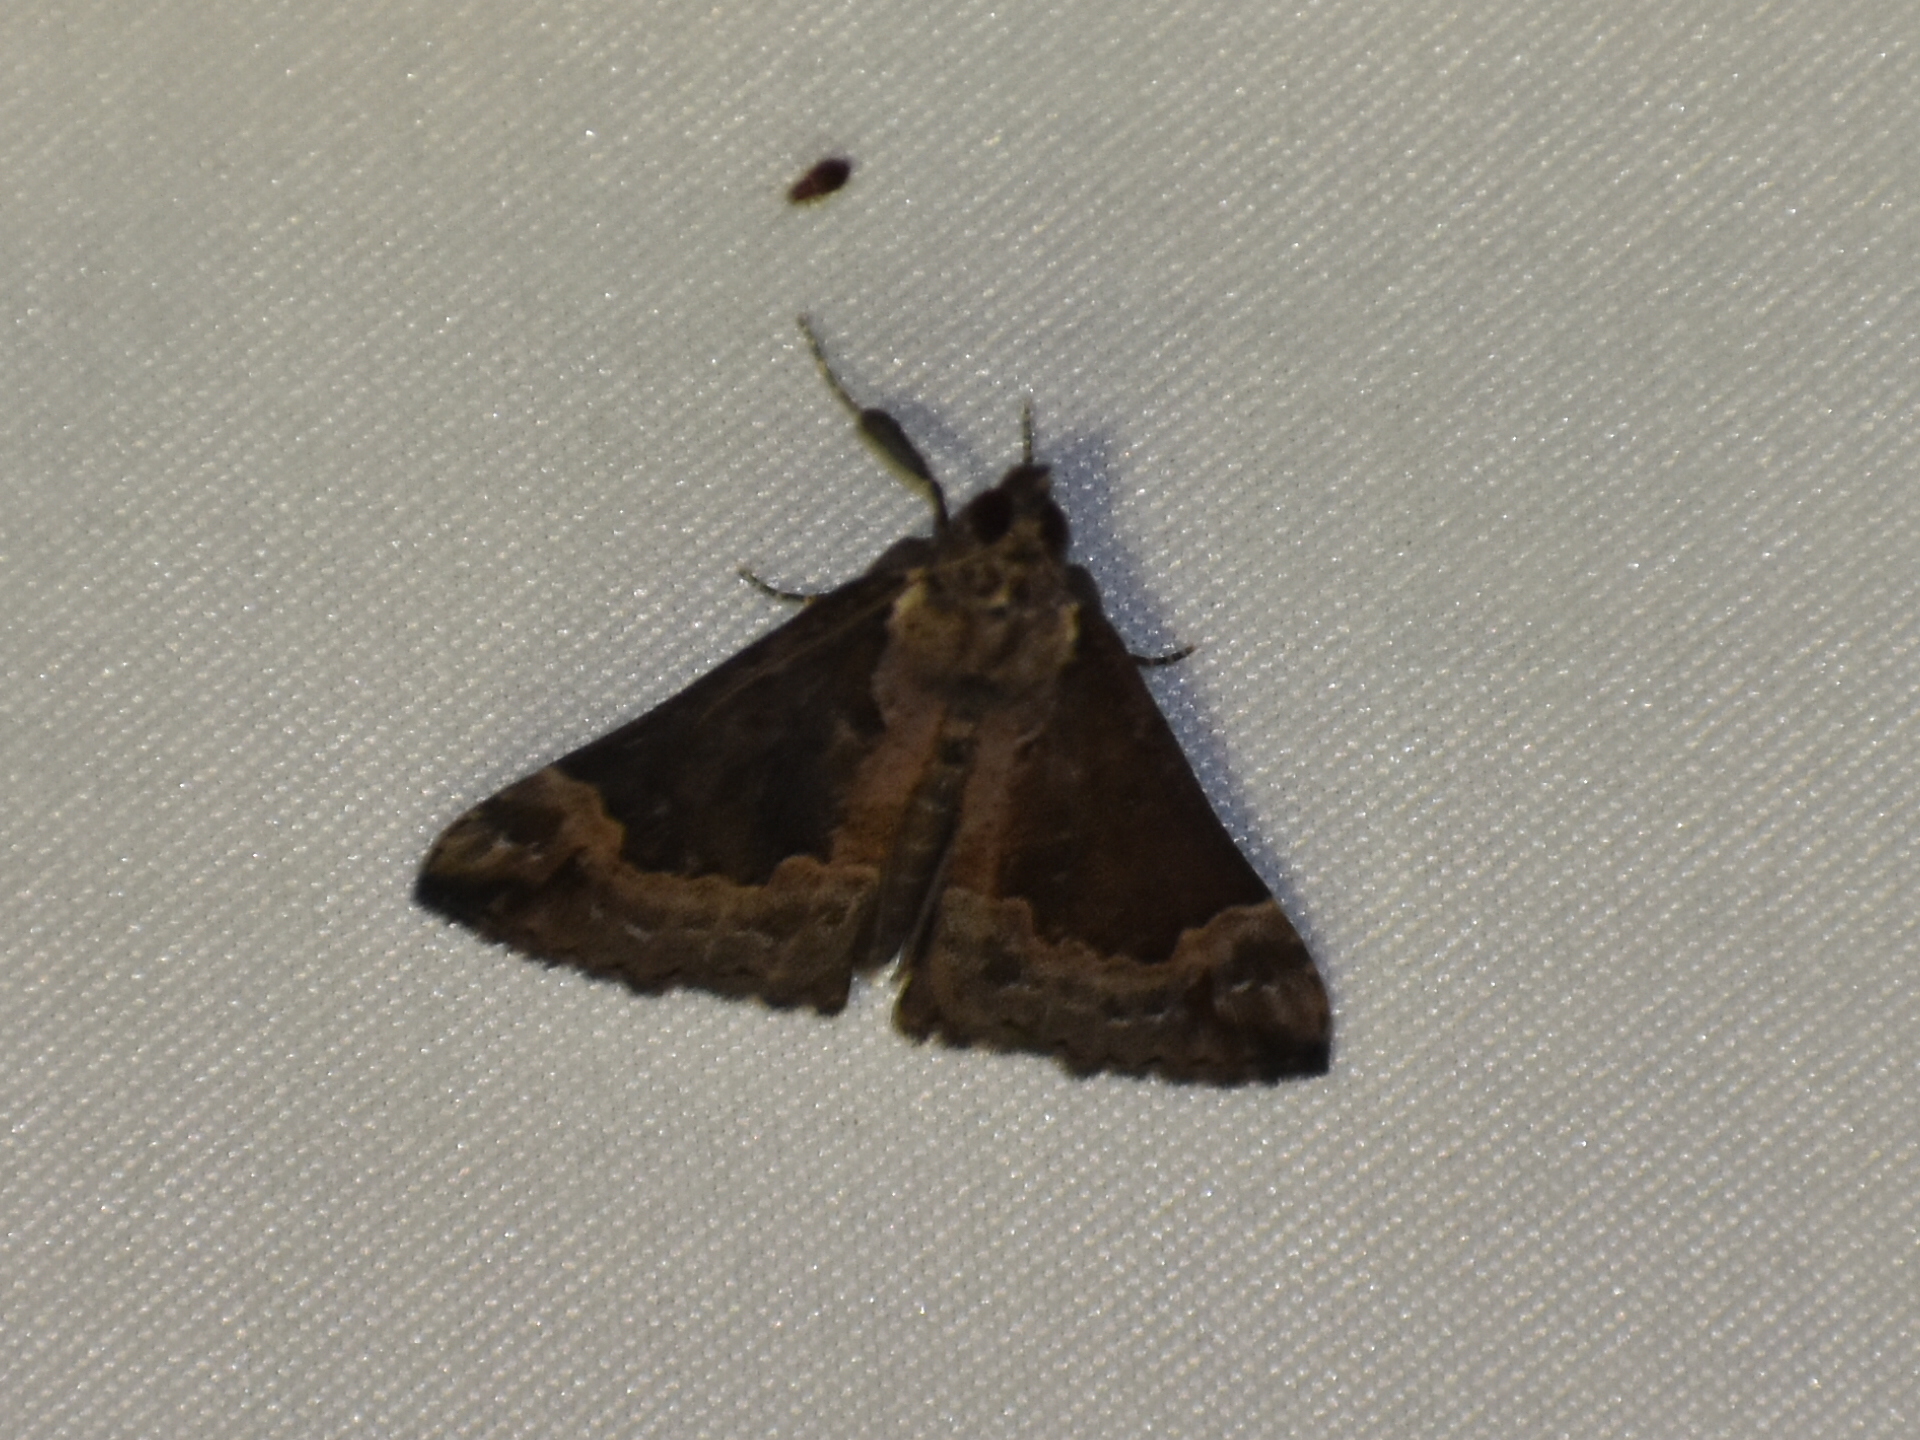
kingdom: Animalia
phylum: Arthropoda
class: Insecta
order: Lepidoptera
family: Erebidae
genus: Hypena
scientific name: Hypena baltimoralis
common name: Baltimore snout
